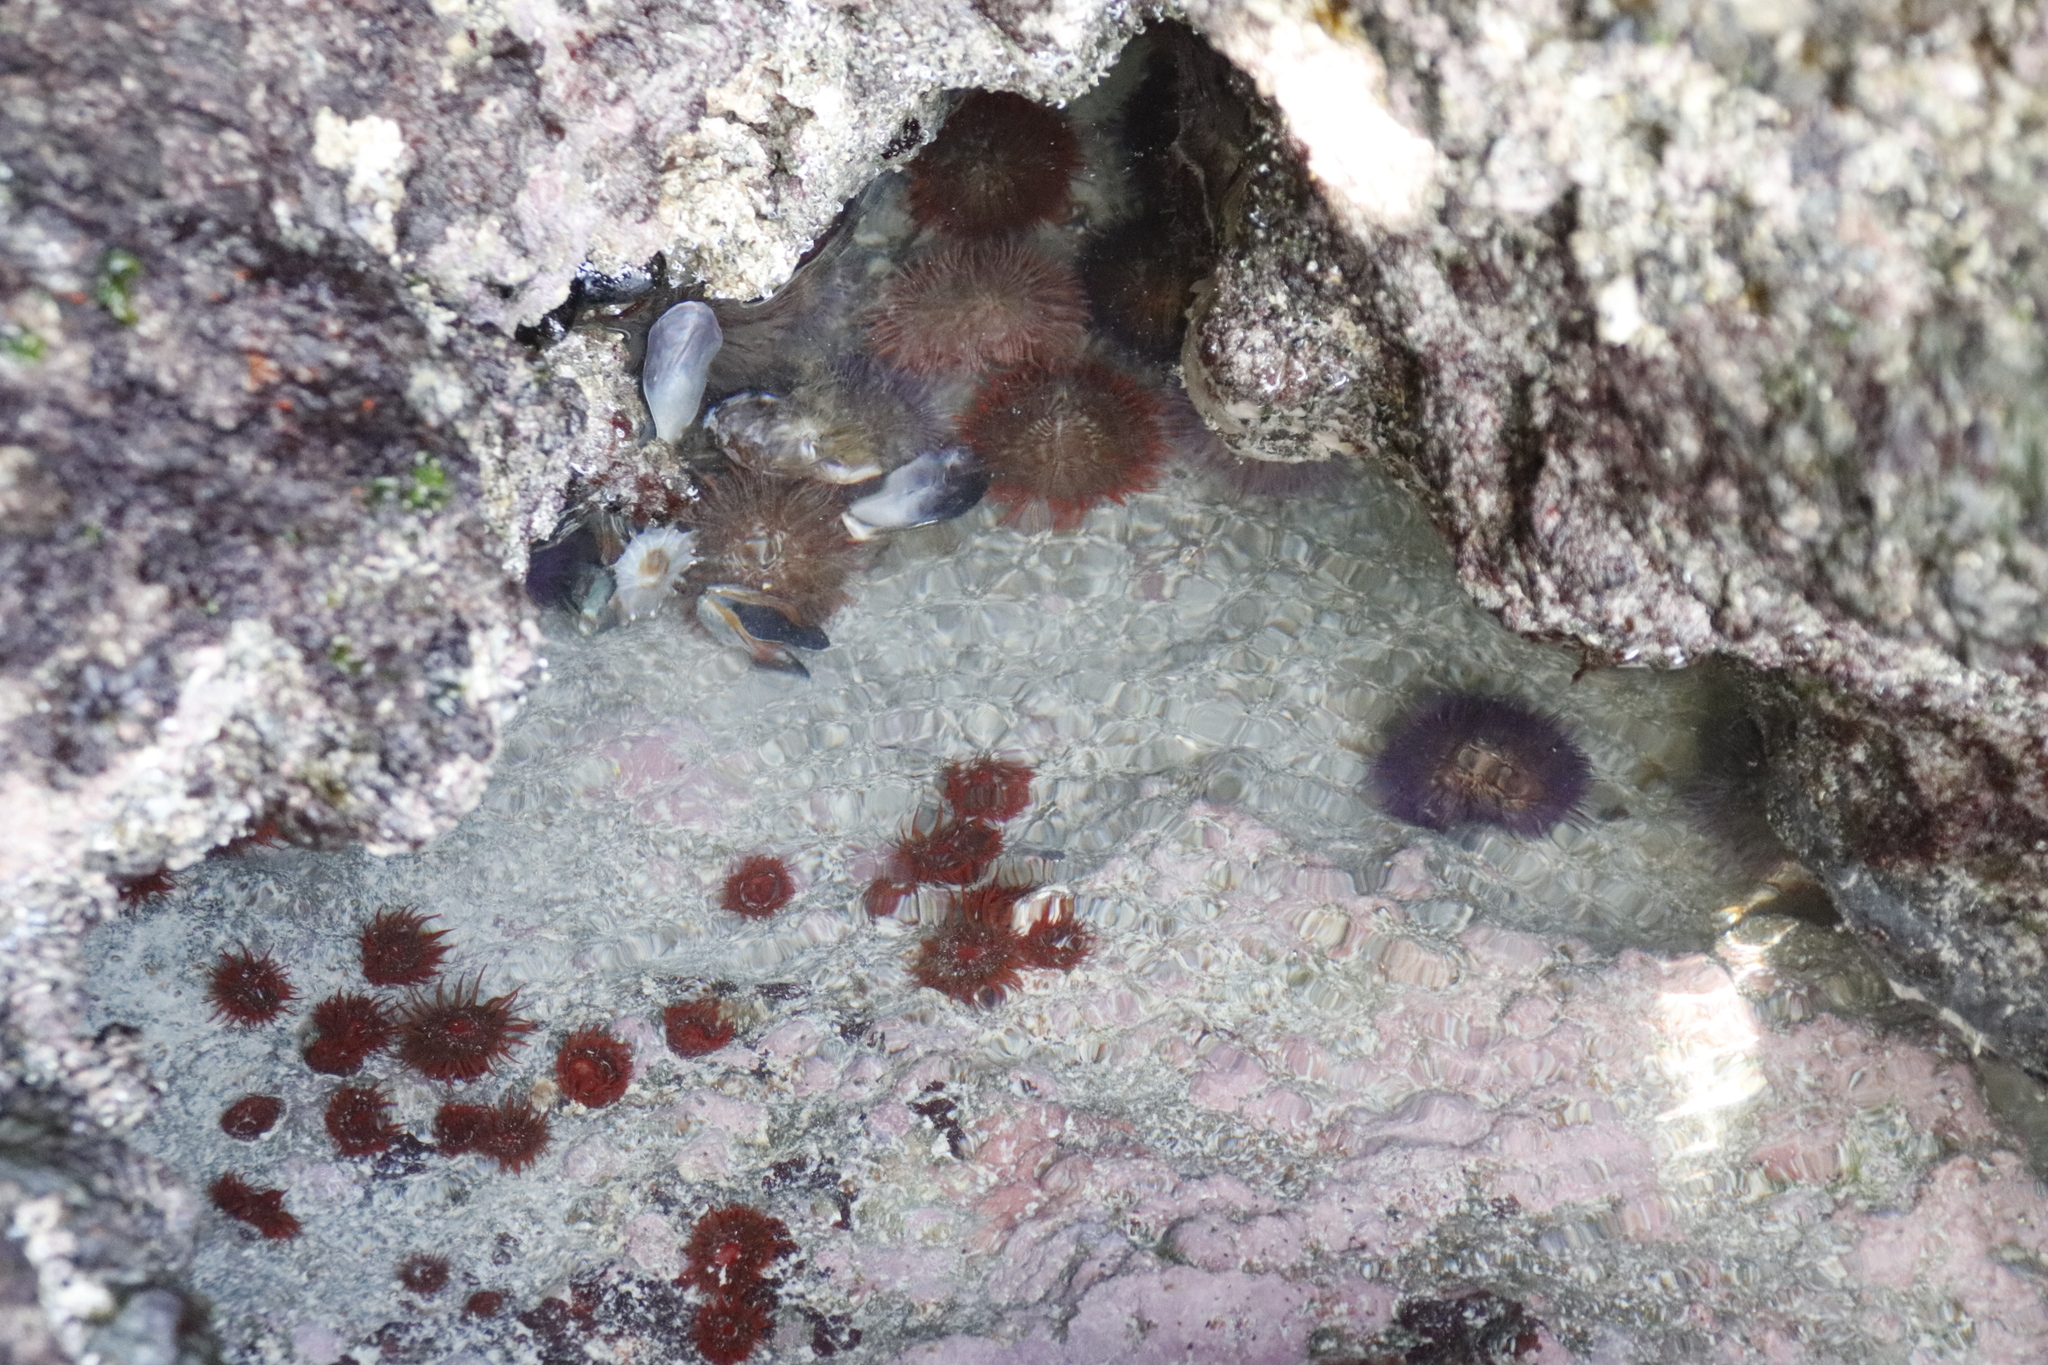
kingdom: Animalia
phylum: Echinodermata
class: Echinoidea
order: Camarodonta
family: Parechinidae
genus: Parechinus
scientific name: Parechinus angulosus
